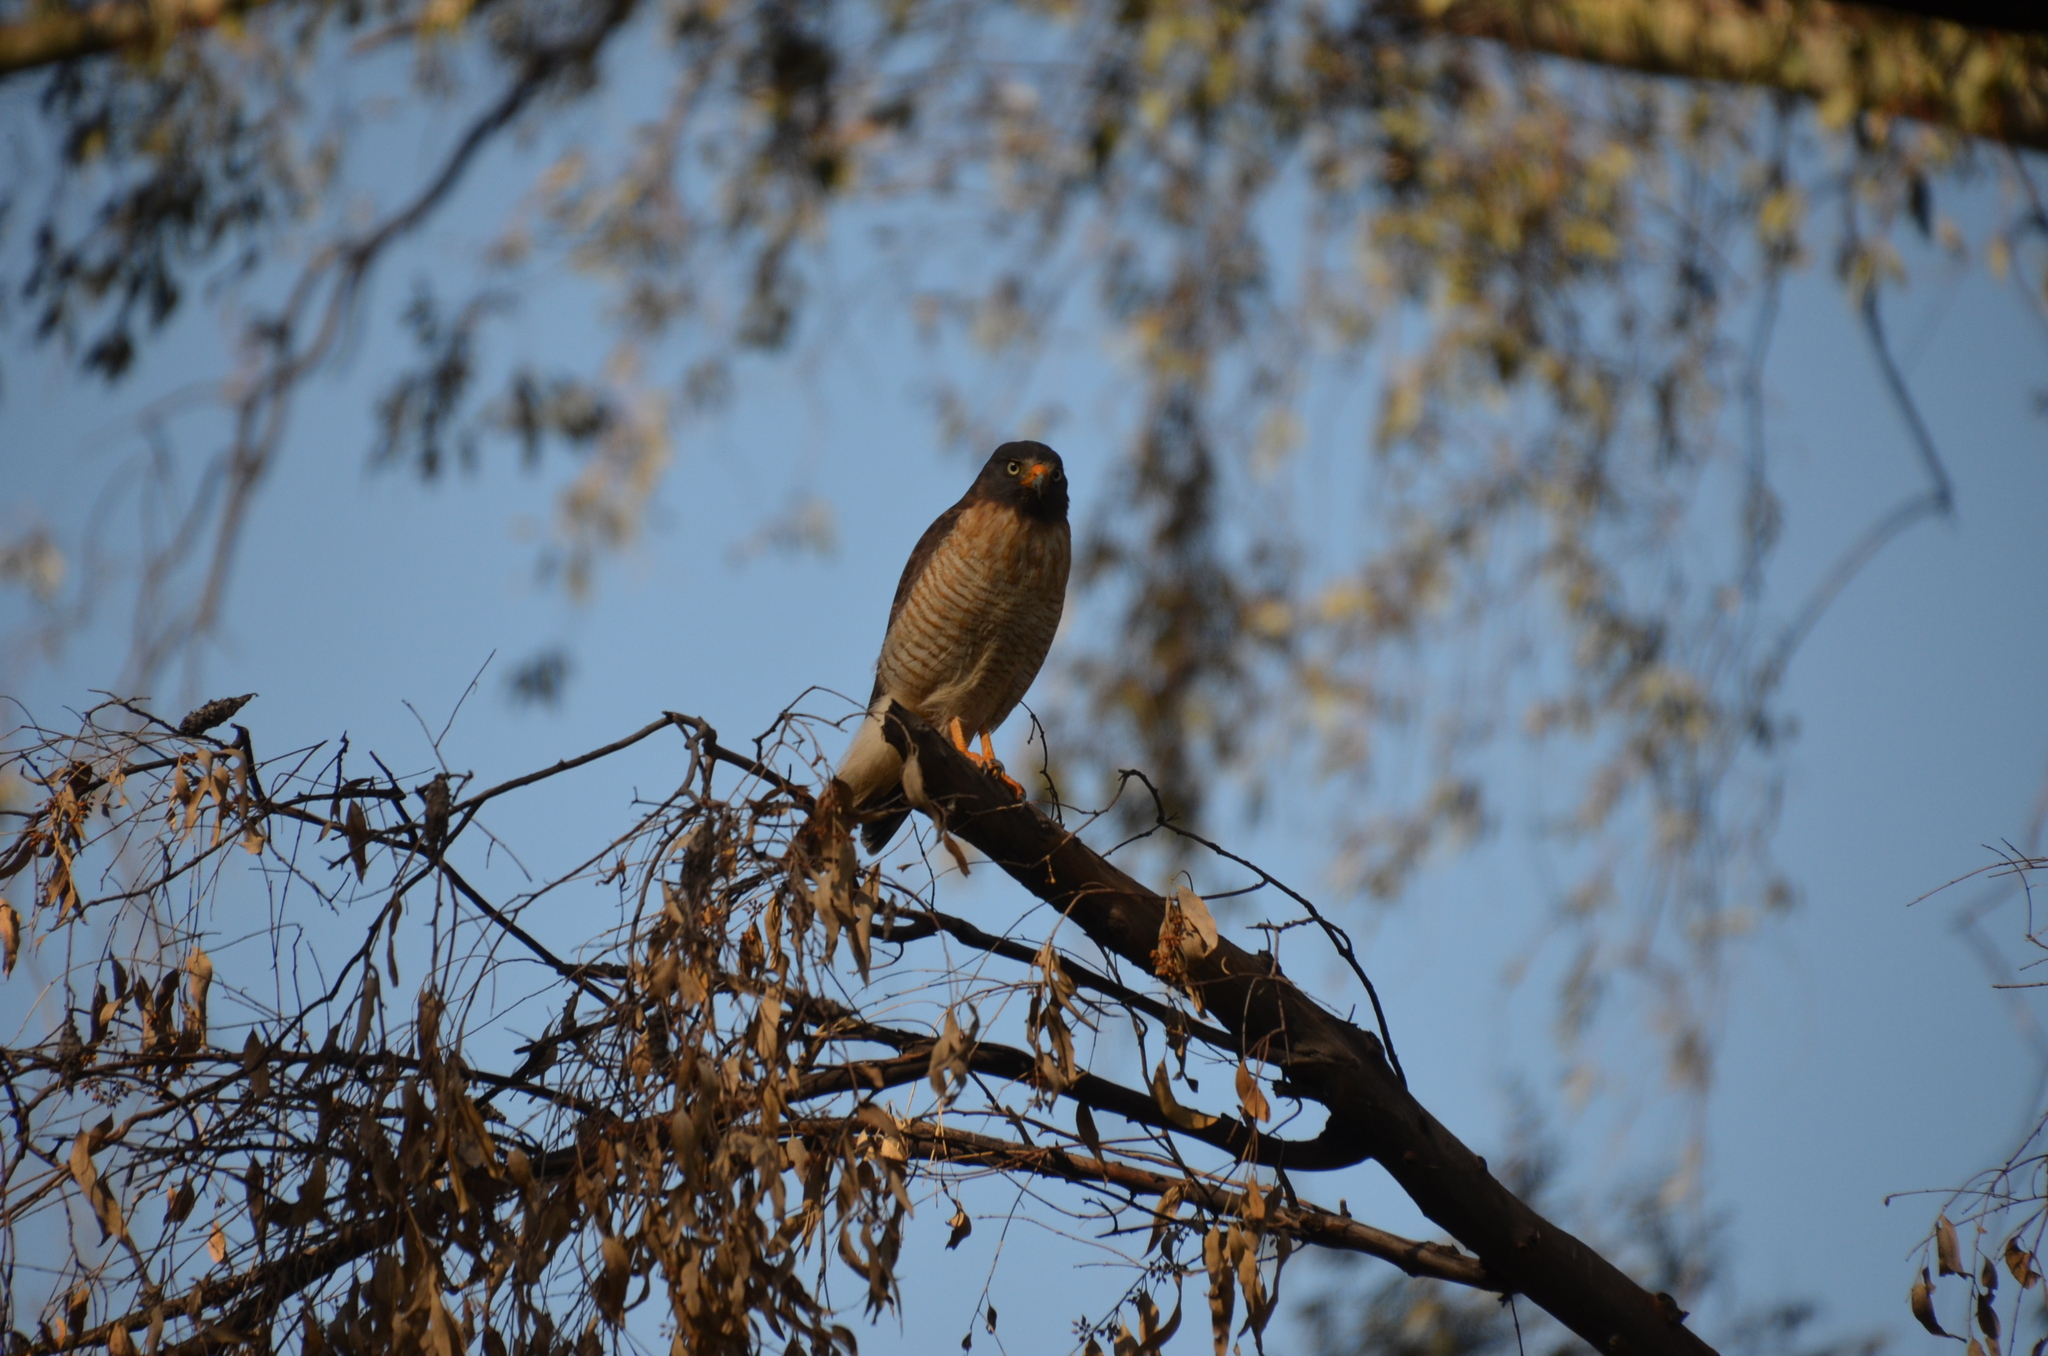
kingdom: Animalia
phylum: Chordata
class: Aves
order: Accipitriformes
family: Accipitridae
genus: Rupornis
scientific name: Rupornis magnirostris
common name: Roadside hawk
